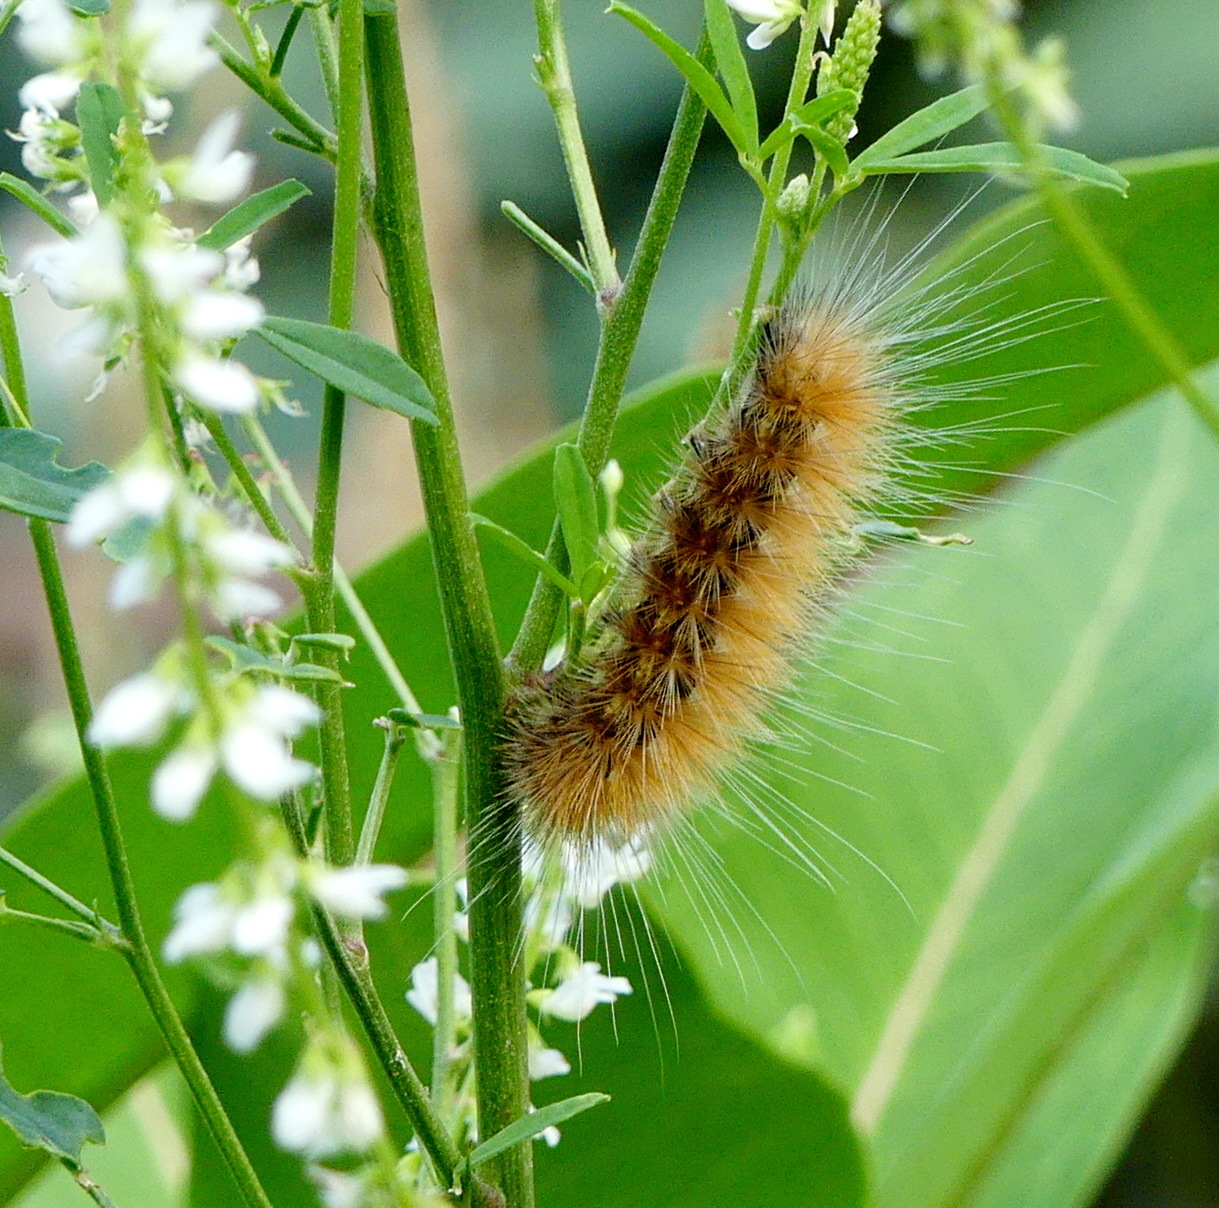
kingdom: Animalia
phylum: Arthropoda
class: Insecta
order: Lepidoptera
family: Erebidae
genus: Spilosoma
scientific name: Spilosoma virginica
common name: Virginia tiger moth
